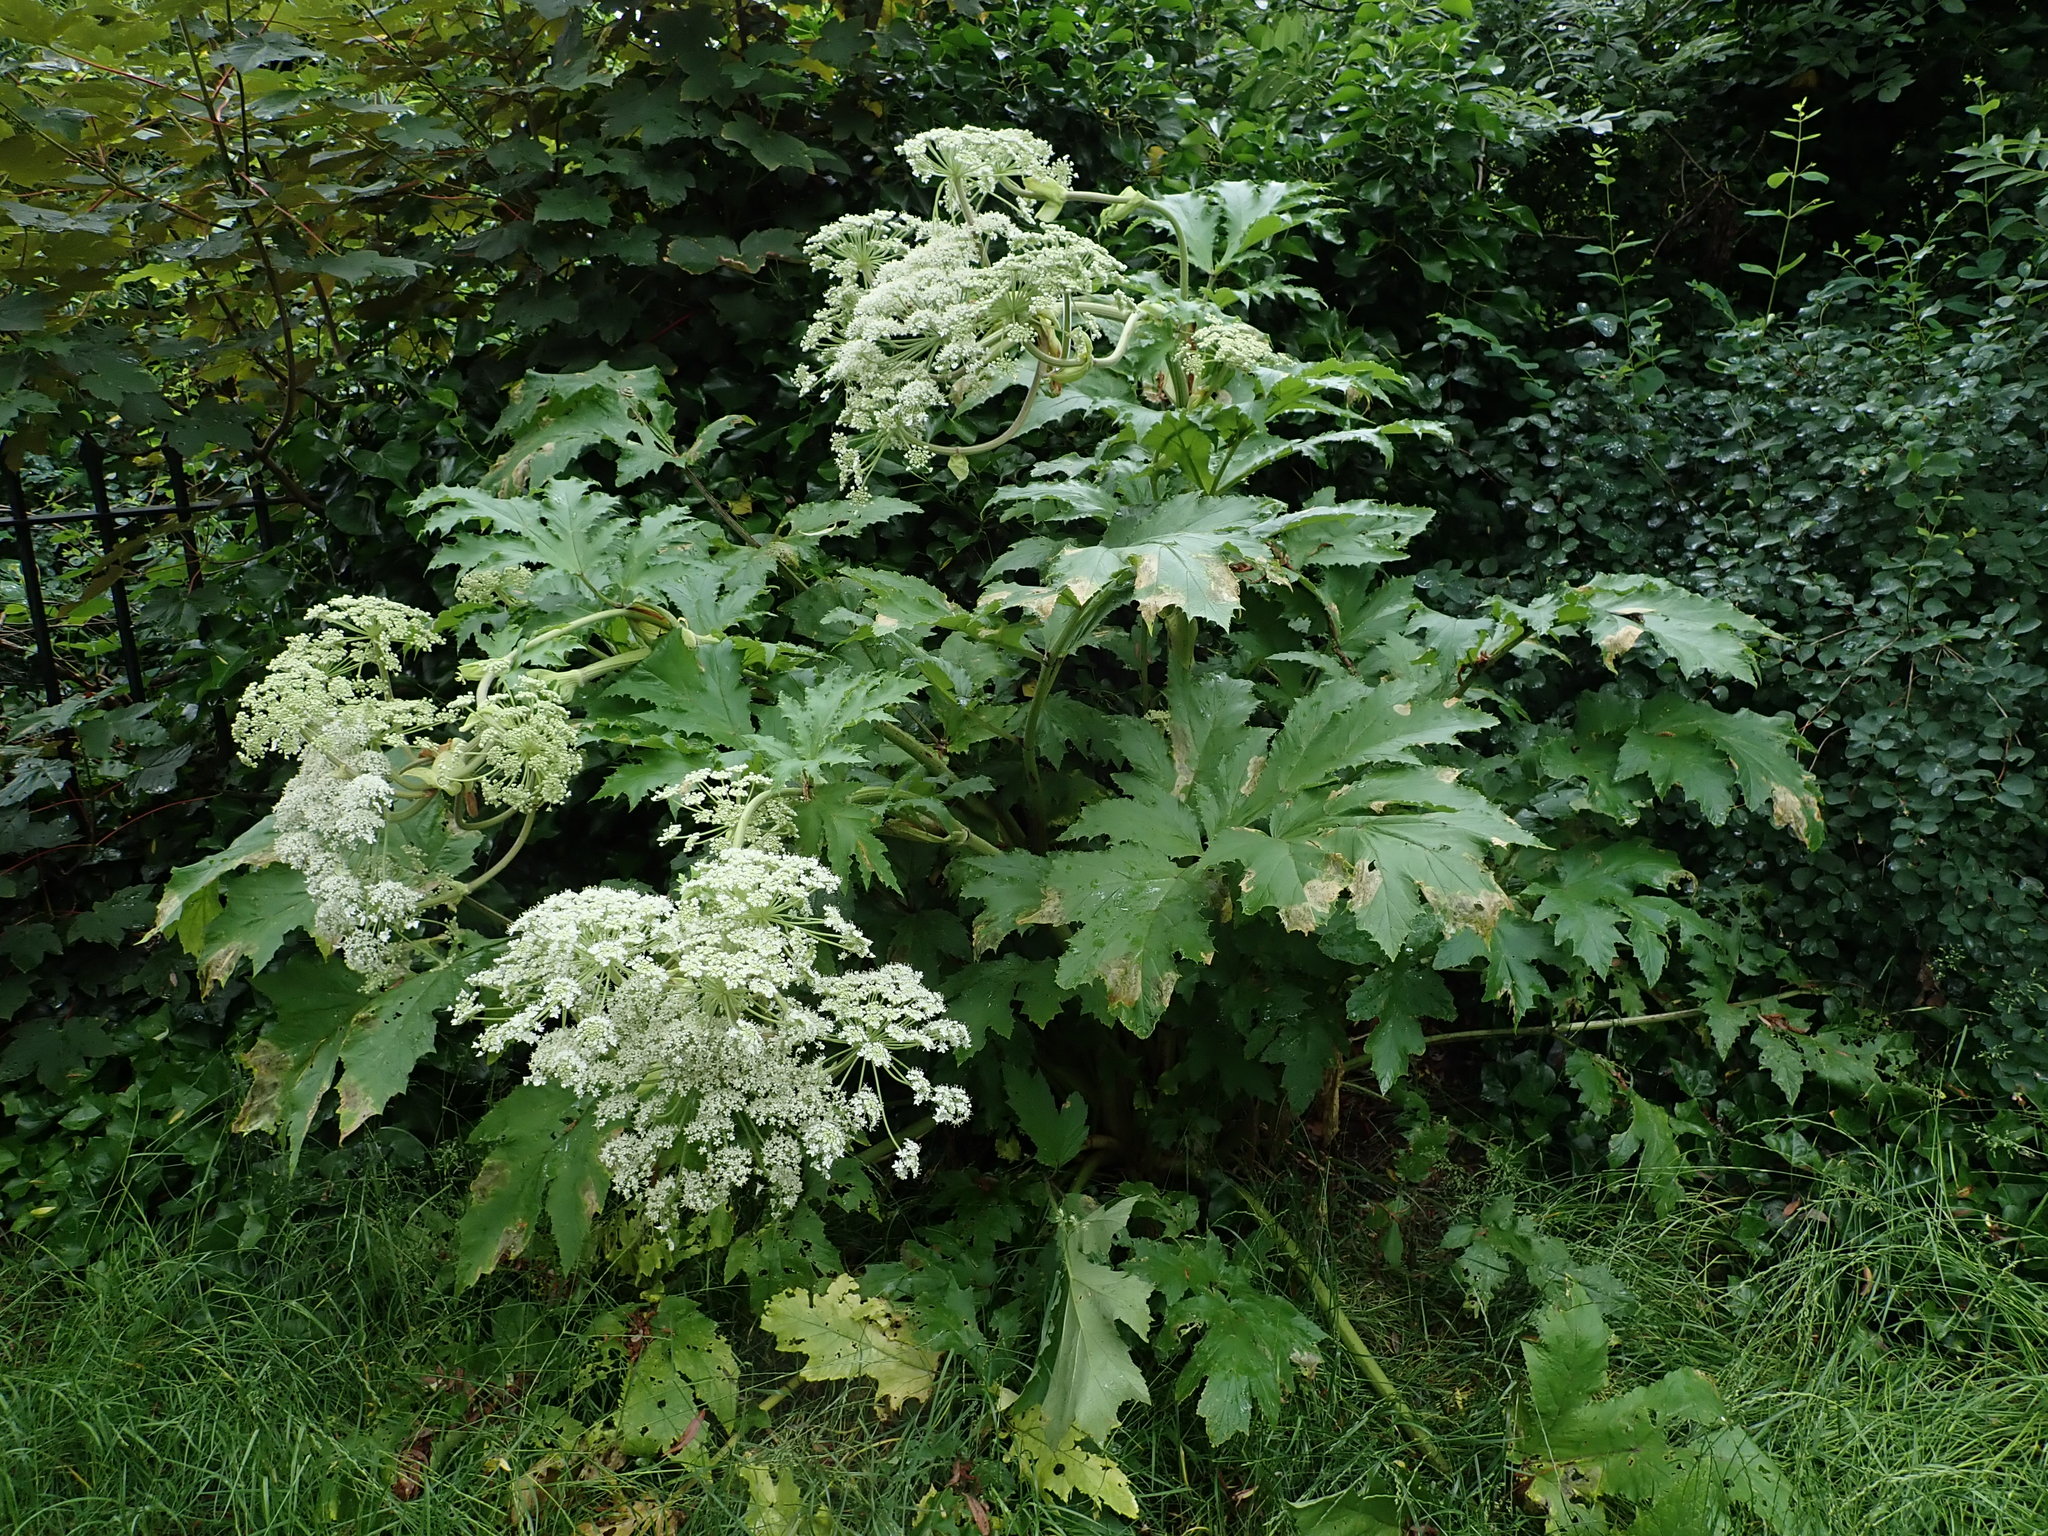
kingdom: Plantae
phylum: Tracheophyta
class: Magnoliopsida
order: Apiales
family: Apiaceae
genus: Heracleum
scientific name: Heracleum mantegazzianum
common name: Giant hogweed
